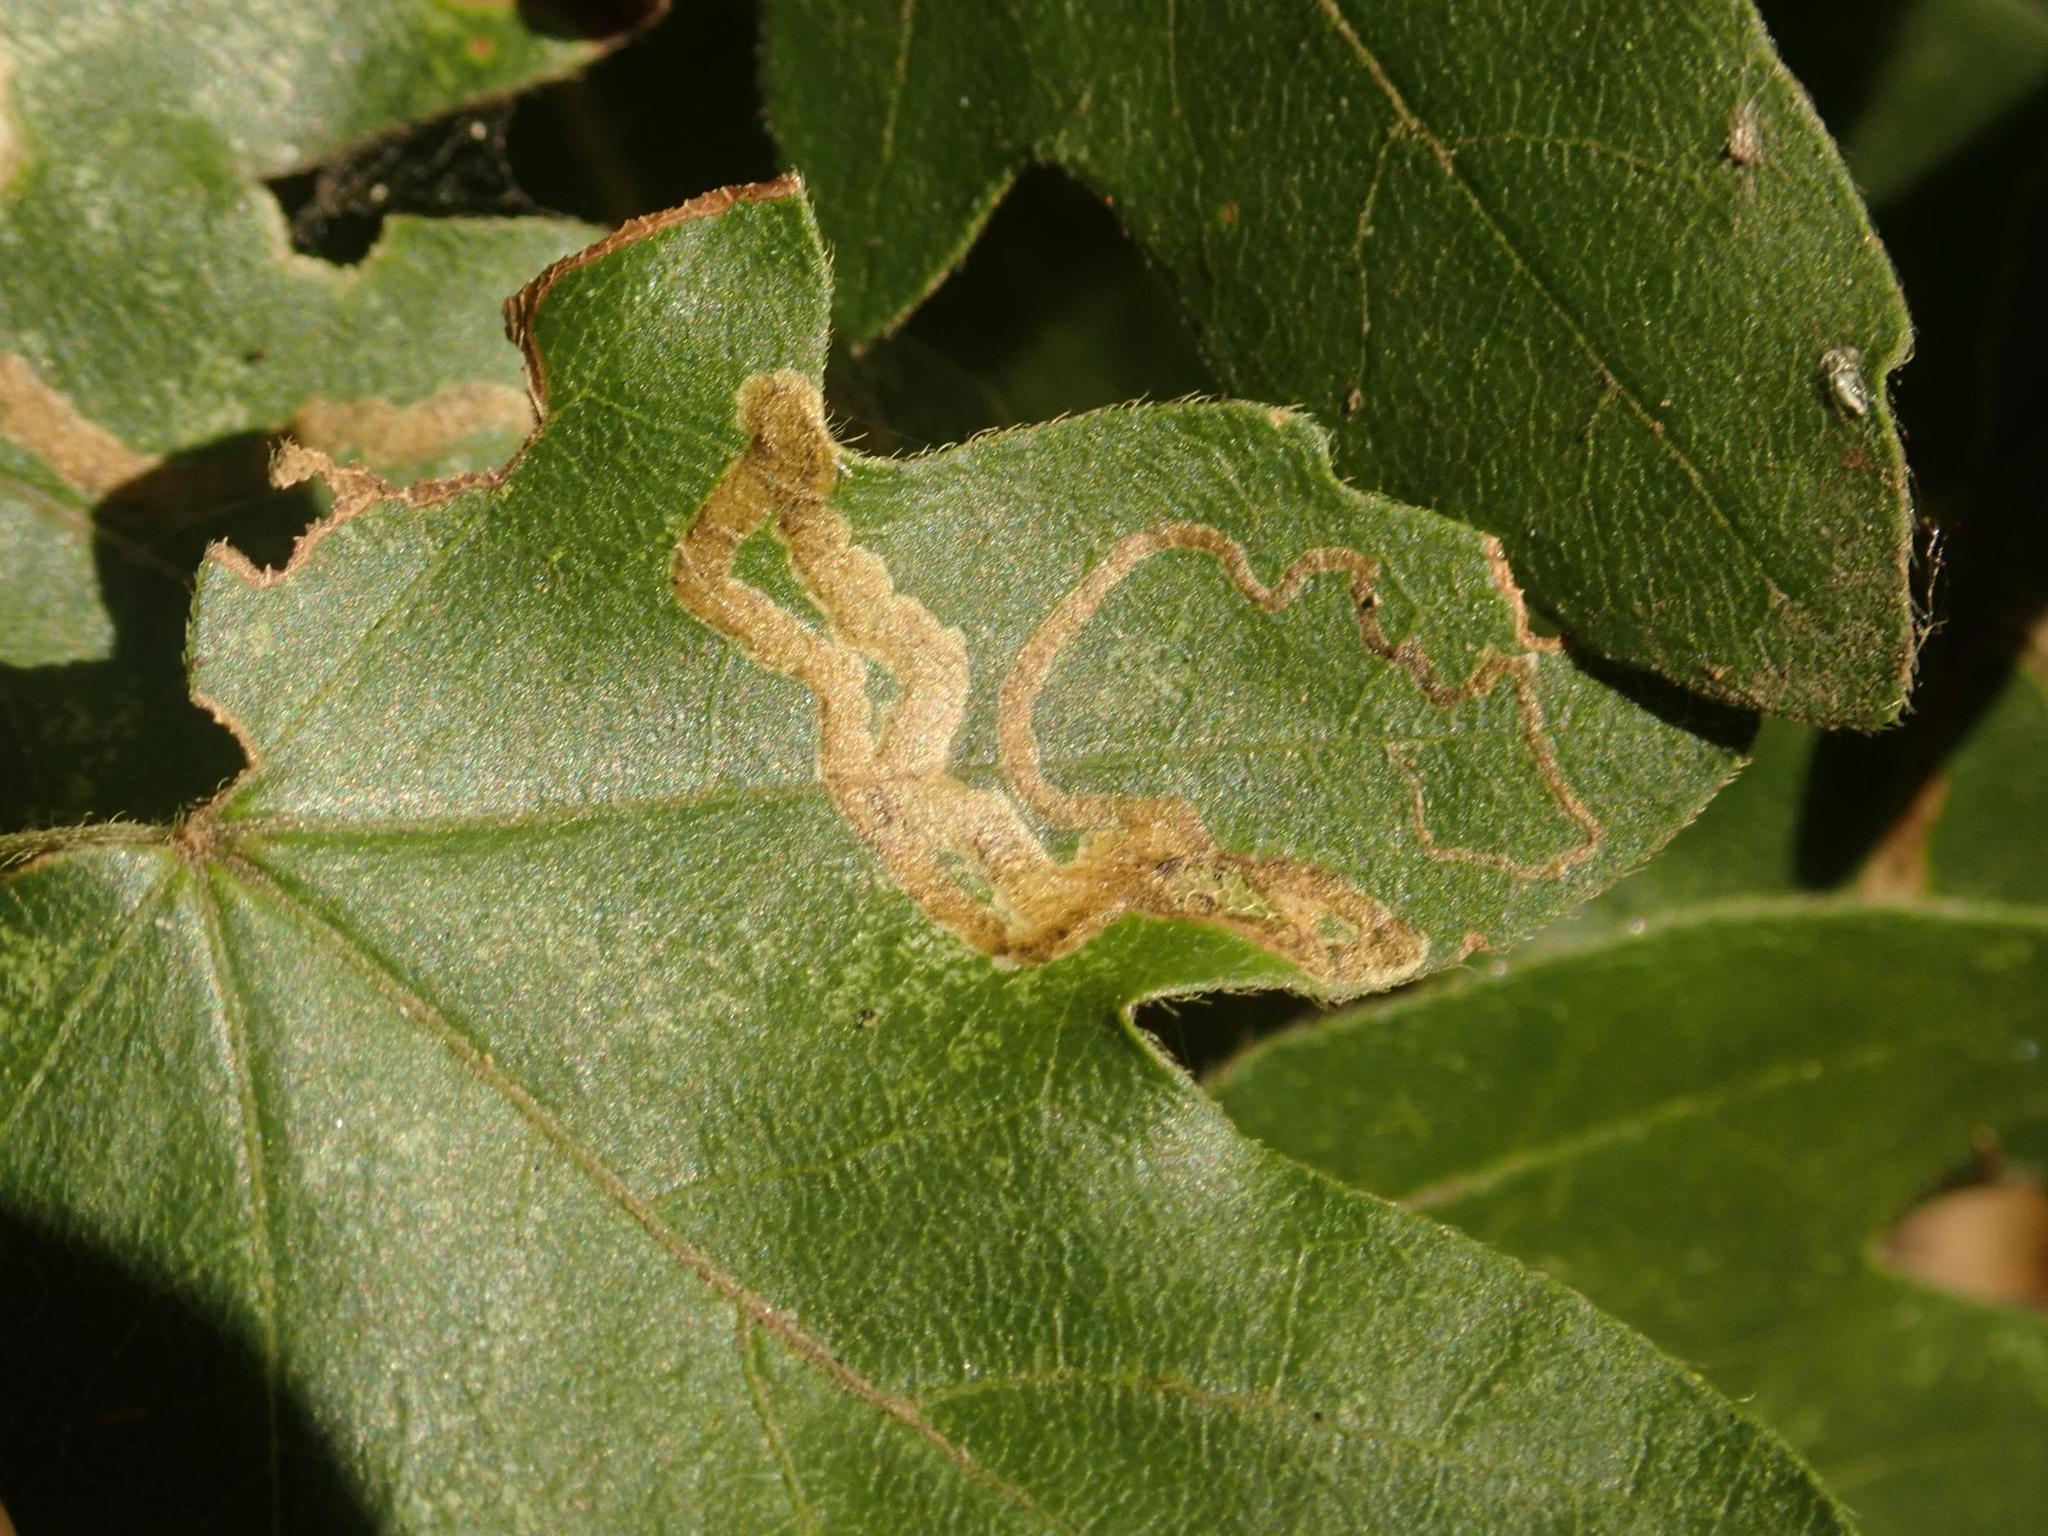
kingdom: Plantae
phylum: Tracheophyta
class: Magnoliopsida
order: Malvales
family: Malvaceae
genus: Malva
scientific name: Malva alcea
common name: Greater musk-mallow
